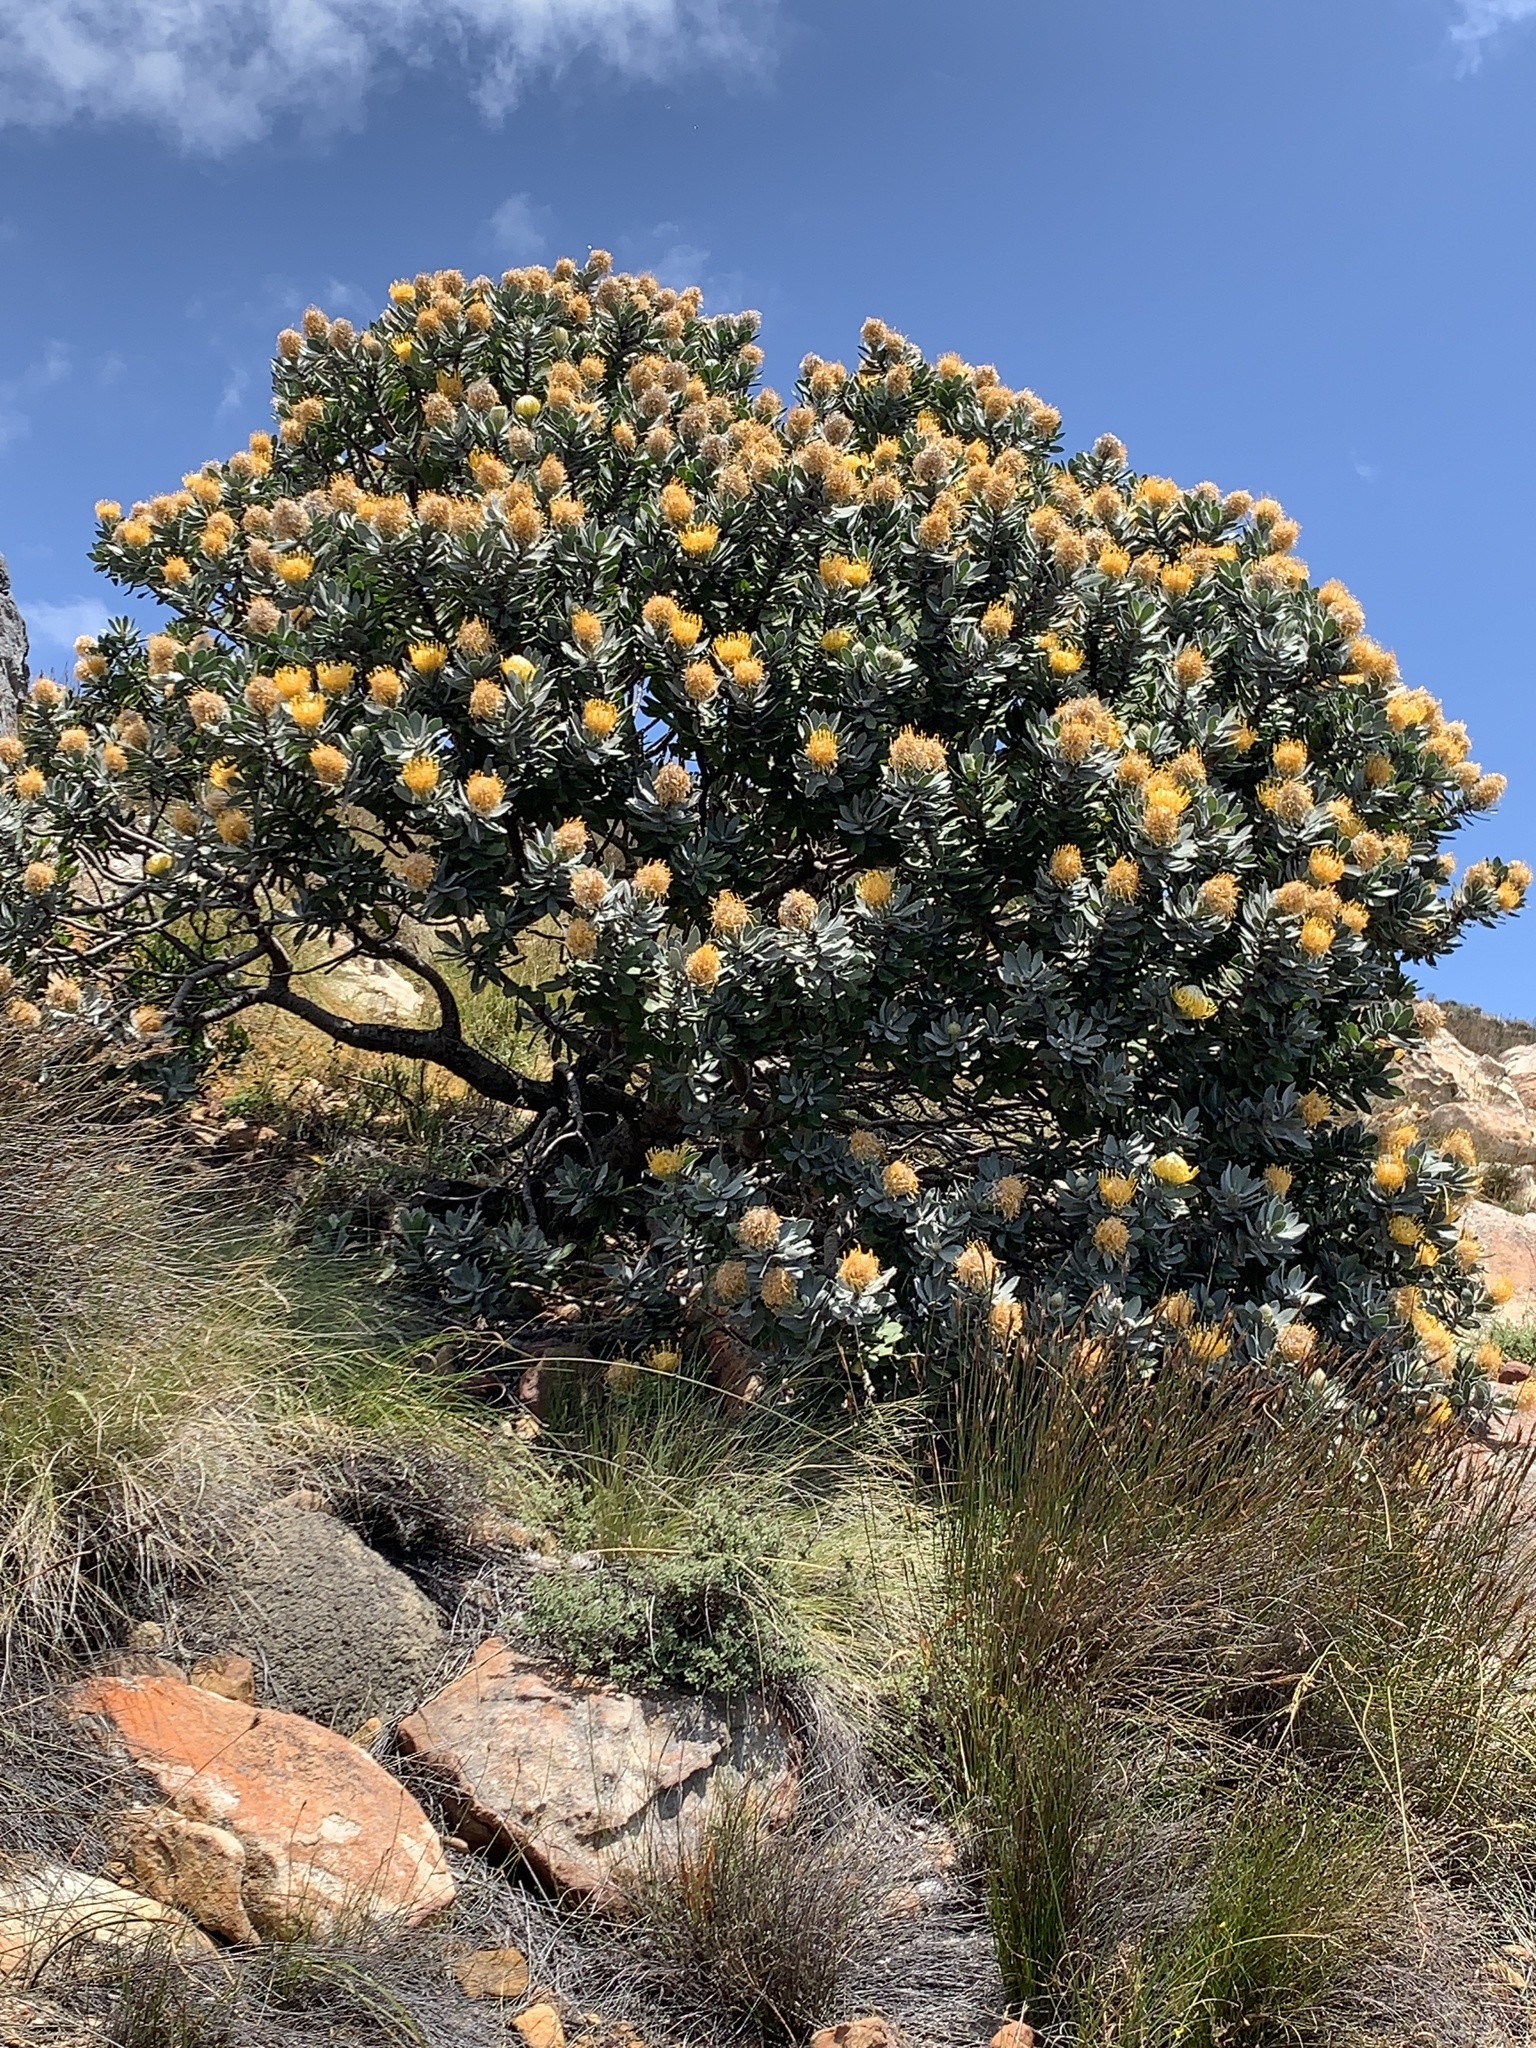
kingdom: Plantae
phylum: Tracheophyta
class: Magnoliopsida
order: Proteales
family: Proteaceae
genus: Leucospermum
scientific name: Leucospermum conocarpodendron
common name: Tree pincushion
